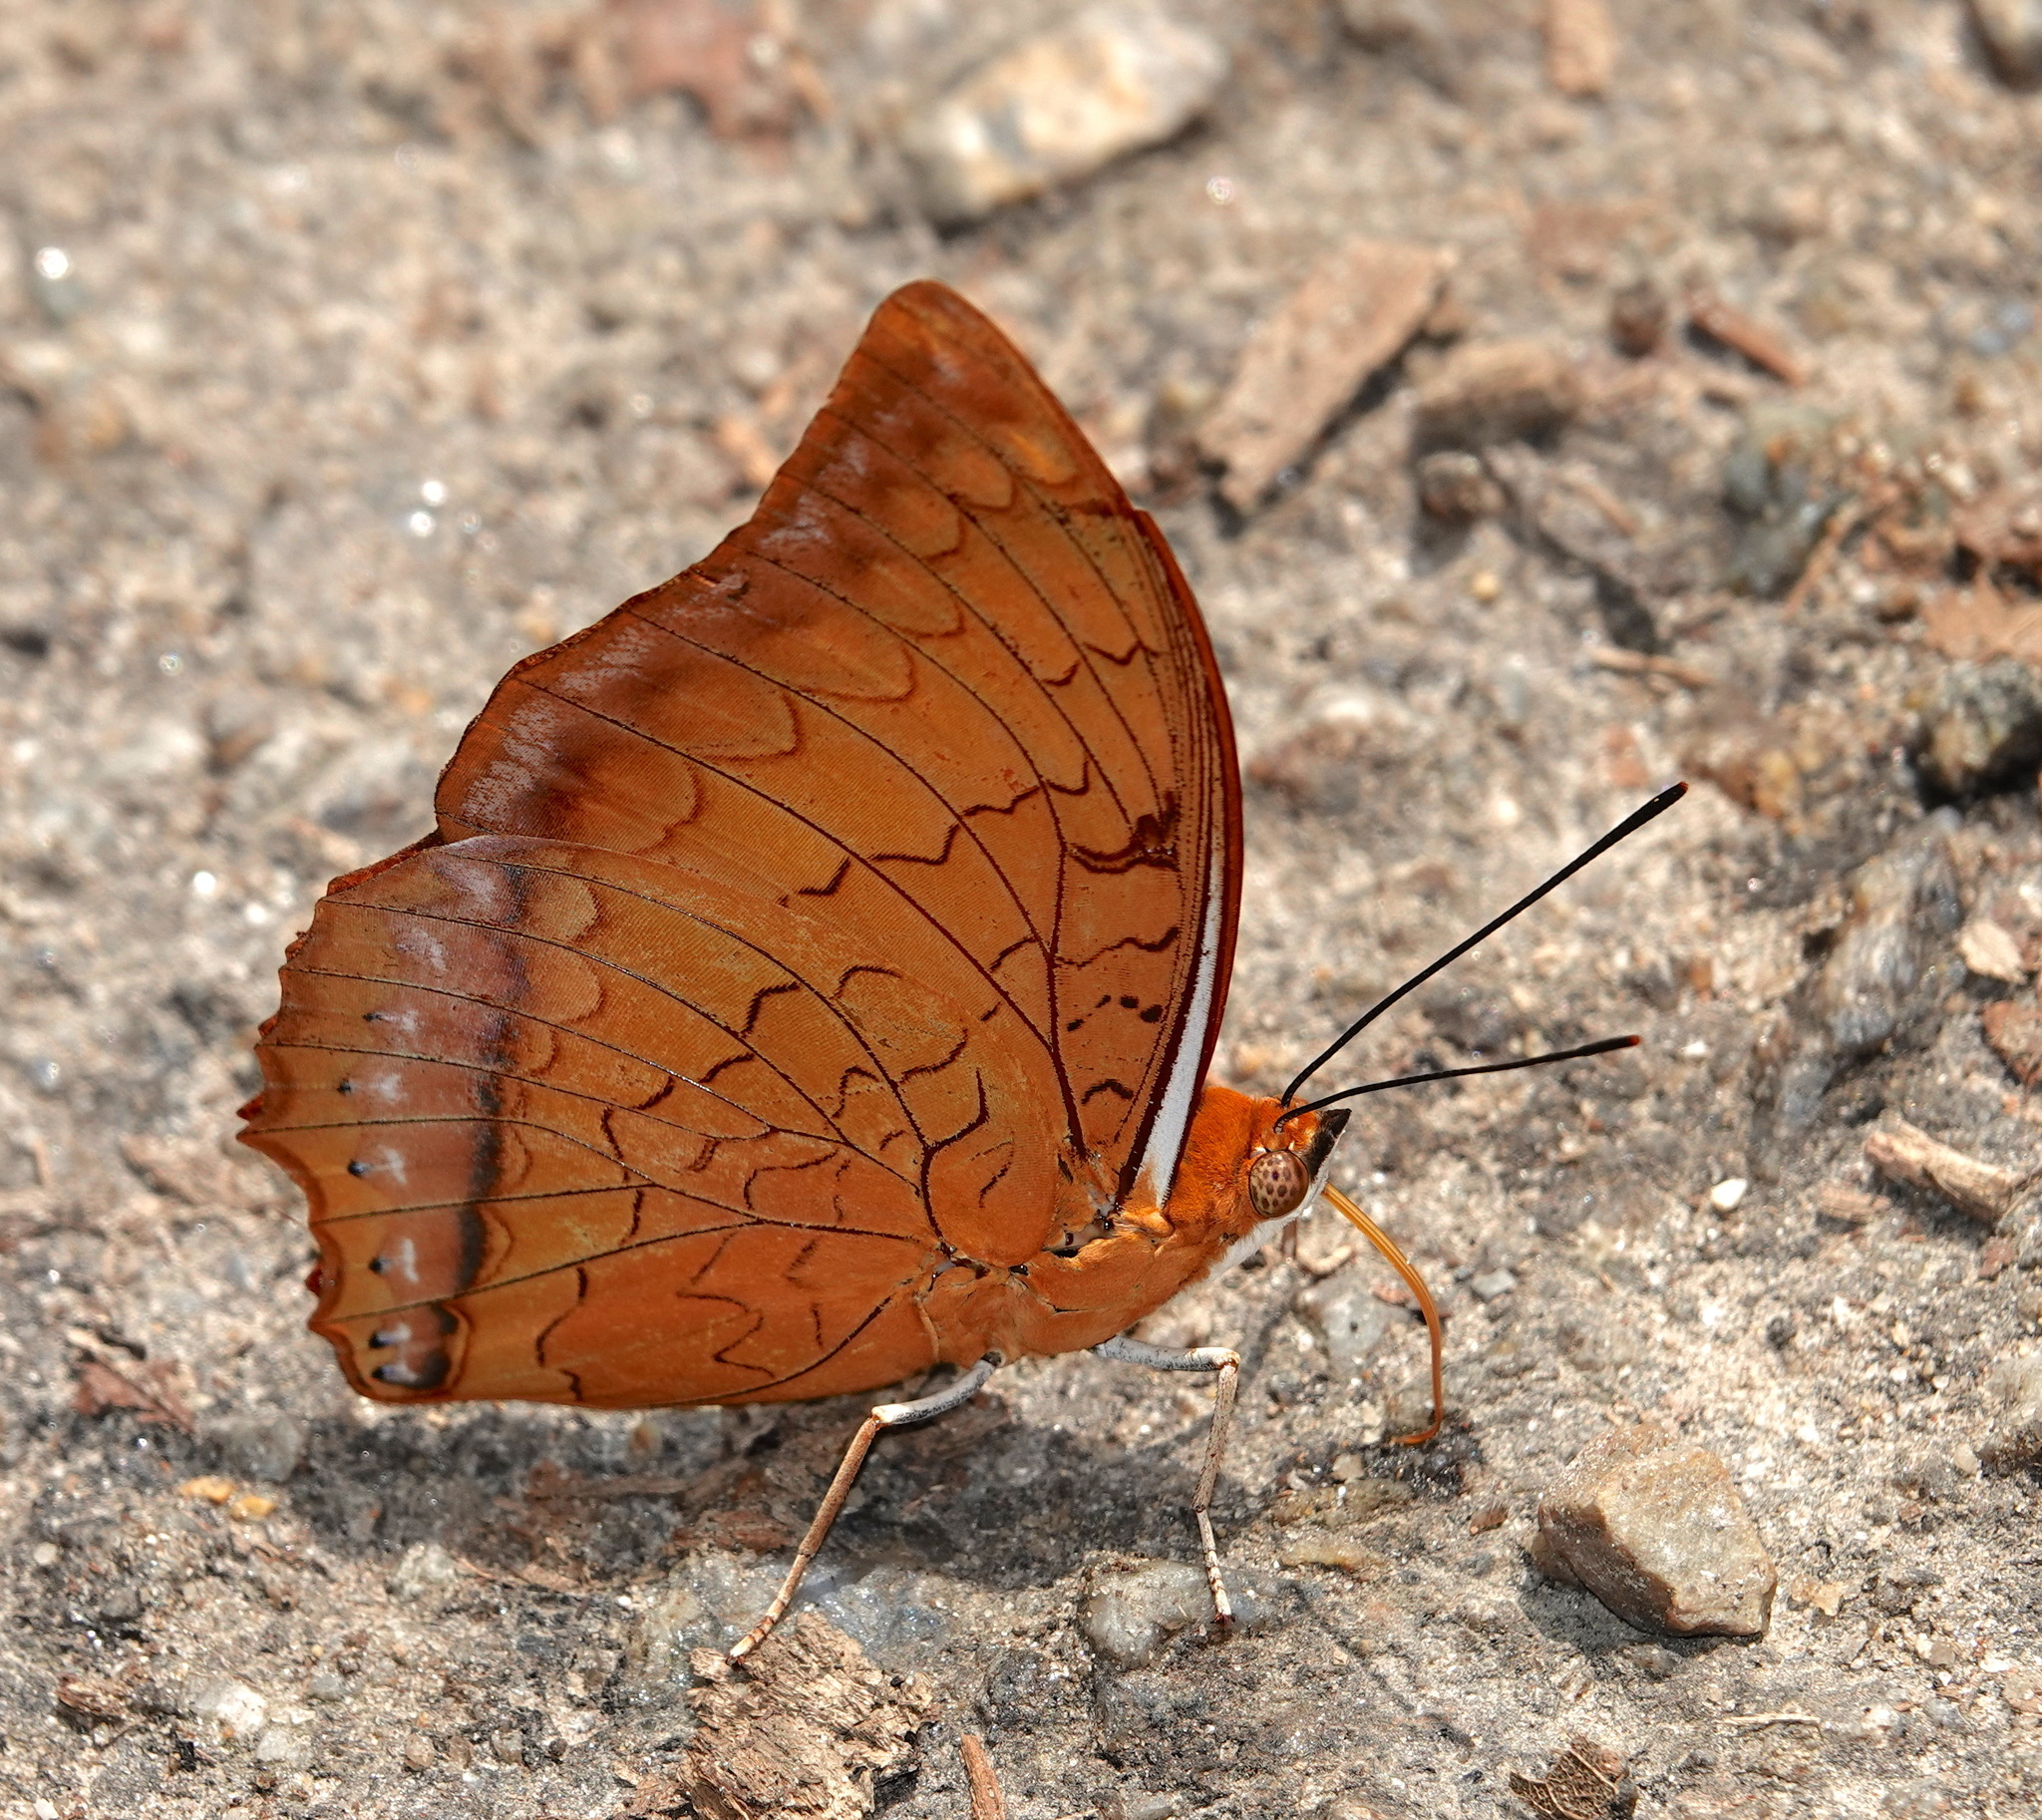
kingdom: Animalia
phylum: Arthropoda
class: Insecta
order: Lepidoptera
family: Nymphalidae
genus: Charaxes
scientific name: Charaxes distanti
